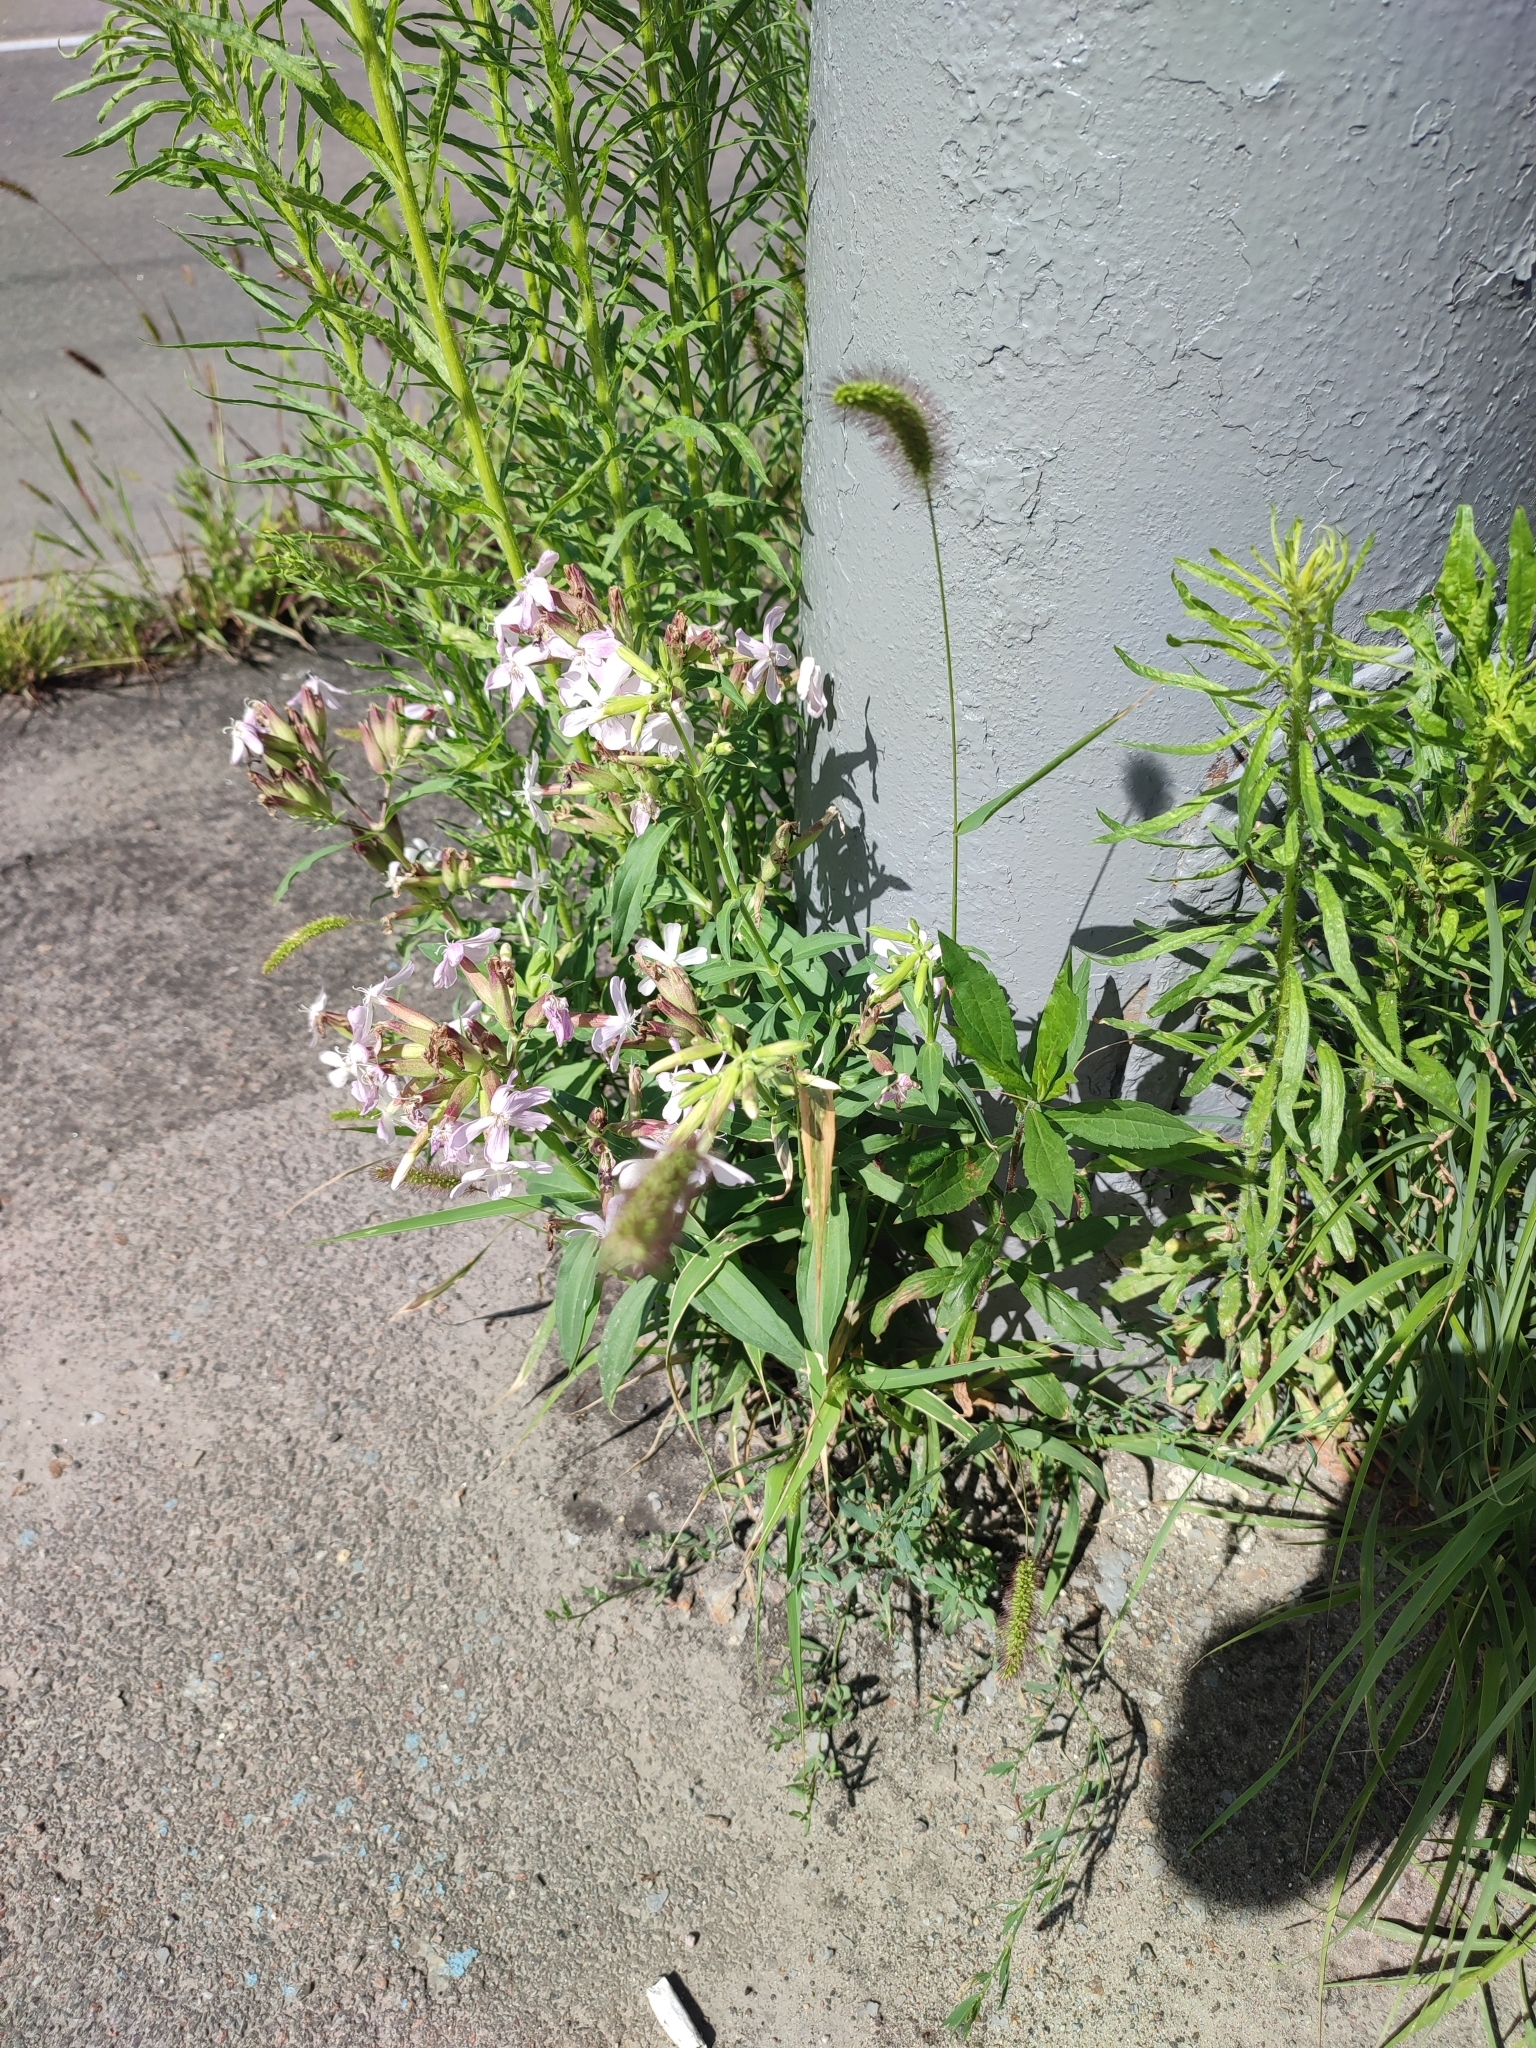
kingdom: Plantae
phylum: Tracheophyta
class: Magnoliopsida
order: Caryophyllales
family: Caryophyllaceae
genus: Saponaria
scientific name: Saponaria officinalis
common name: Soapwort
